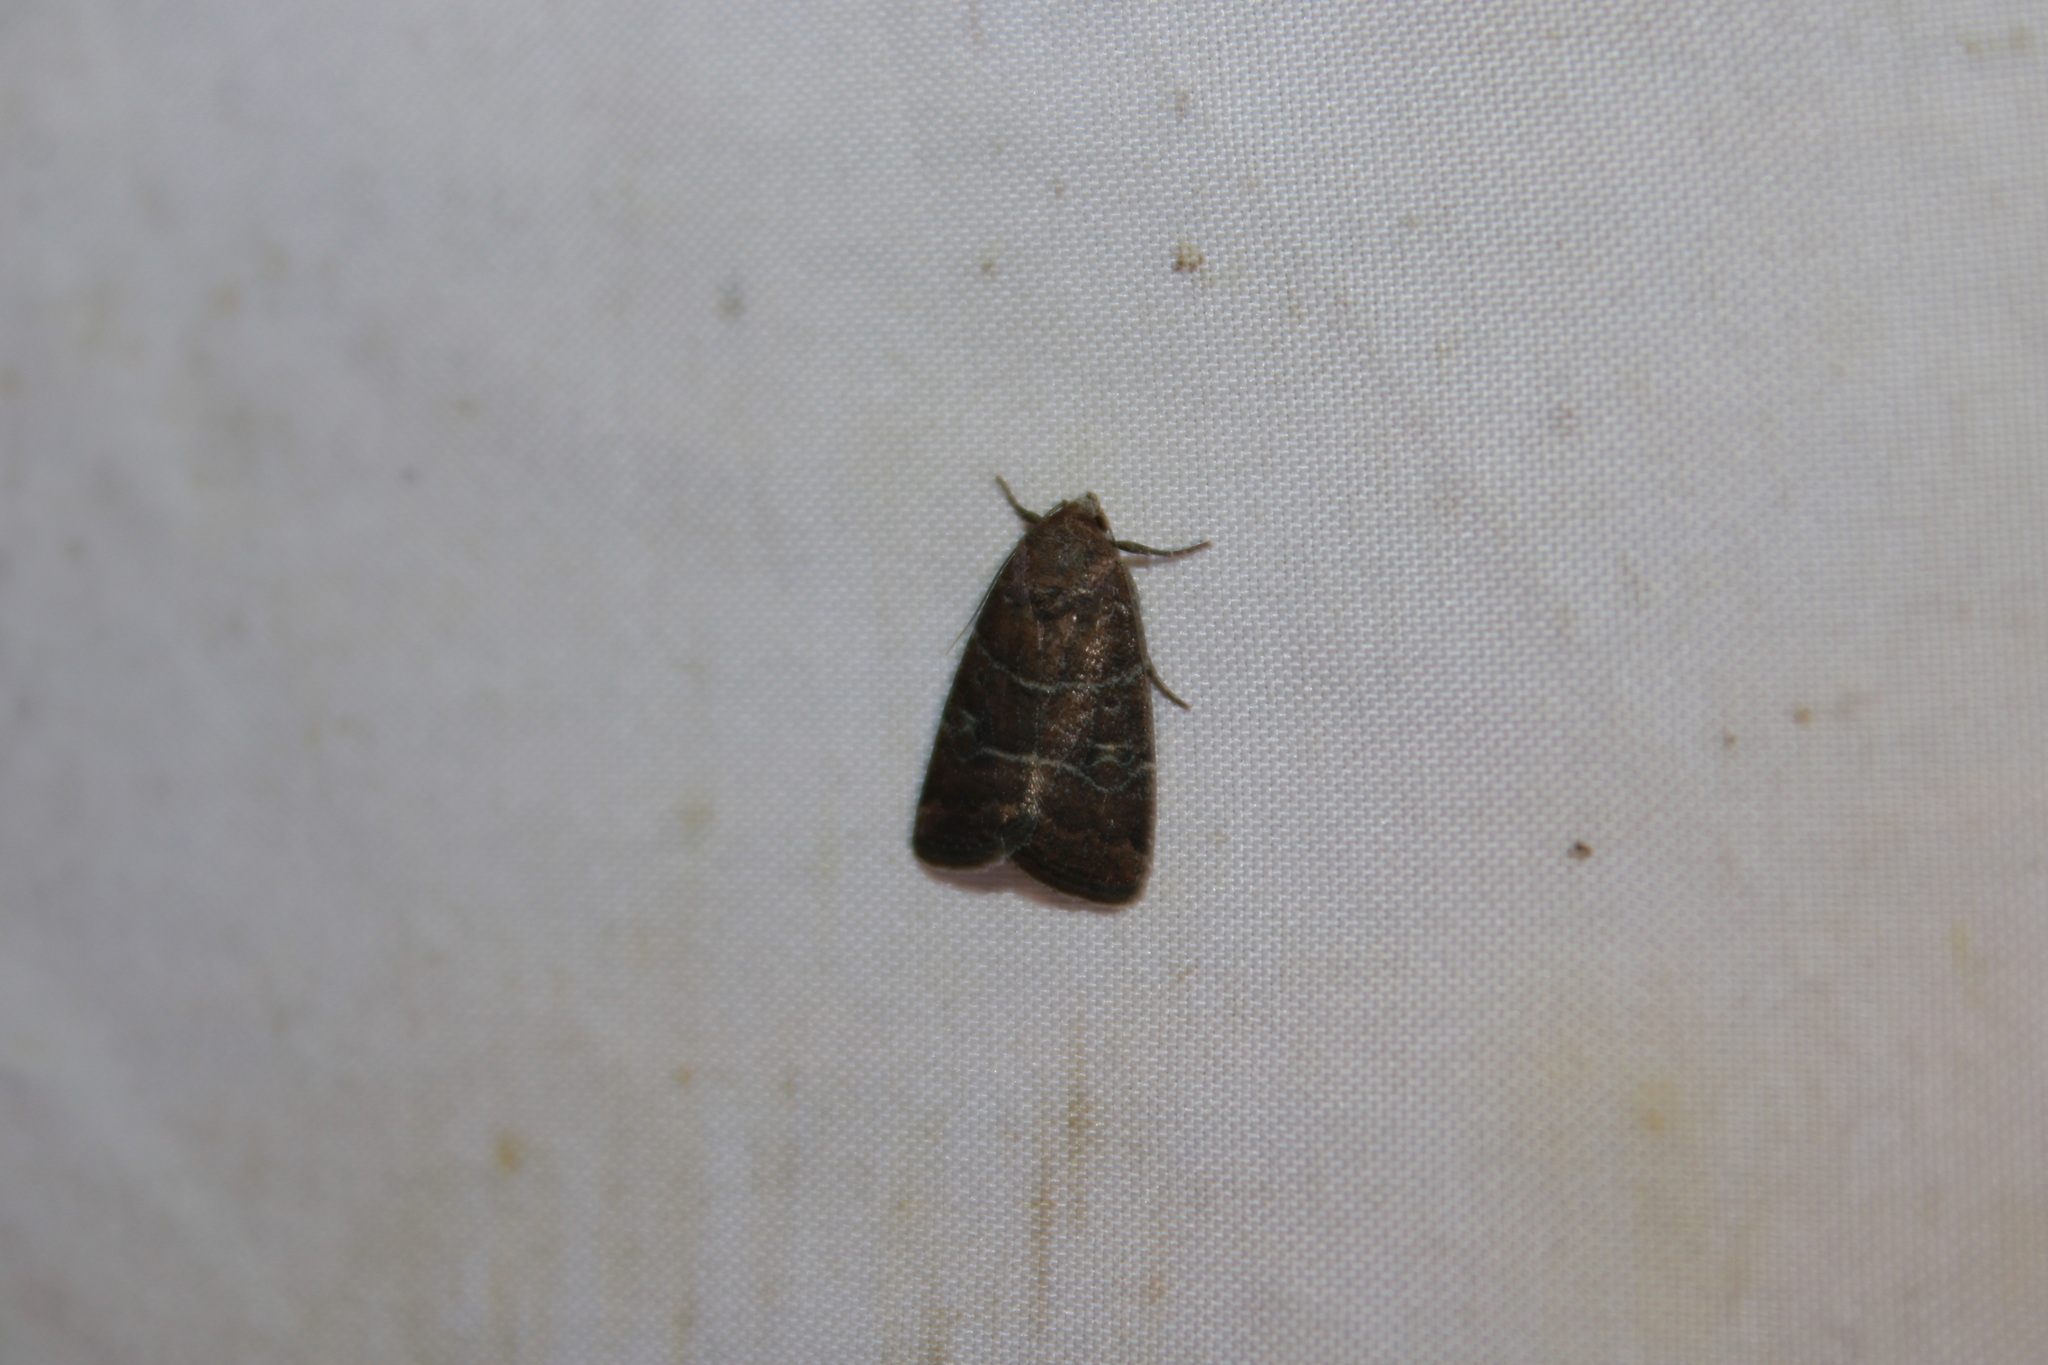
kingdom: Animalia
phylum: Arthropoda
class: Insecta
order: Lepidoptera
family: Noctuidae
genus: Elaphria
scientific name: Elaphria grata
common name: Grateful midget moth
